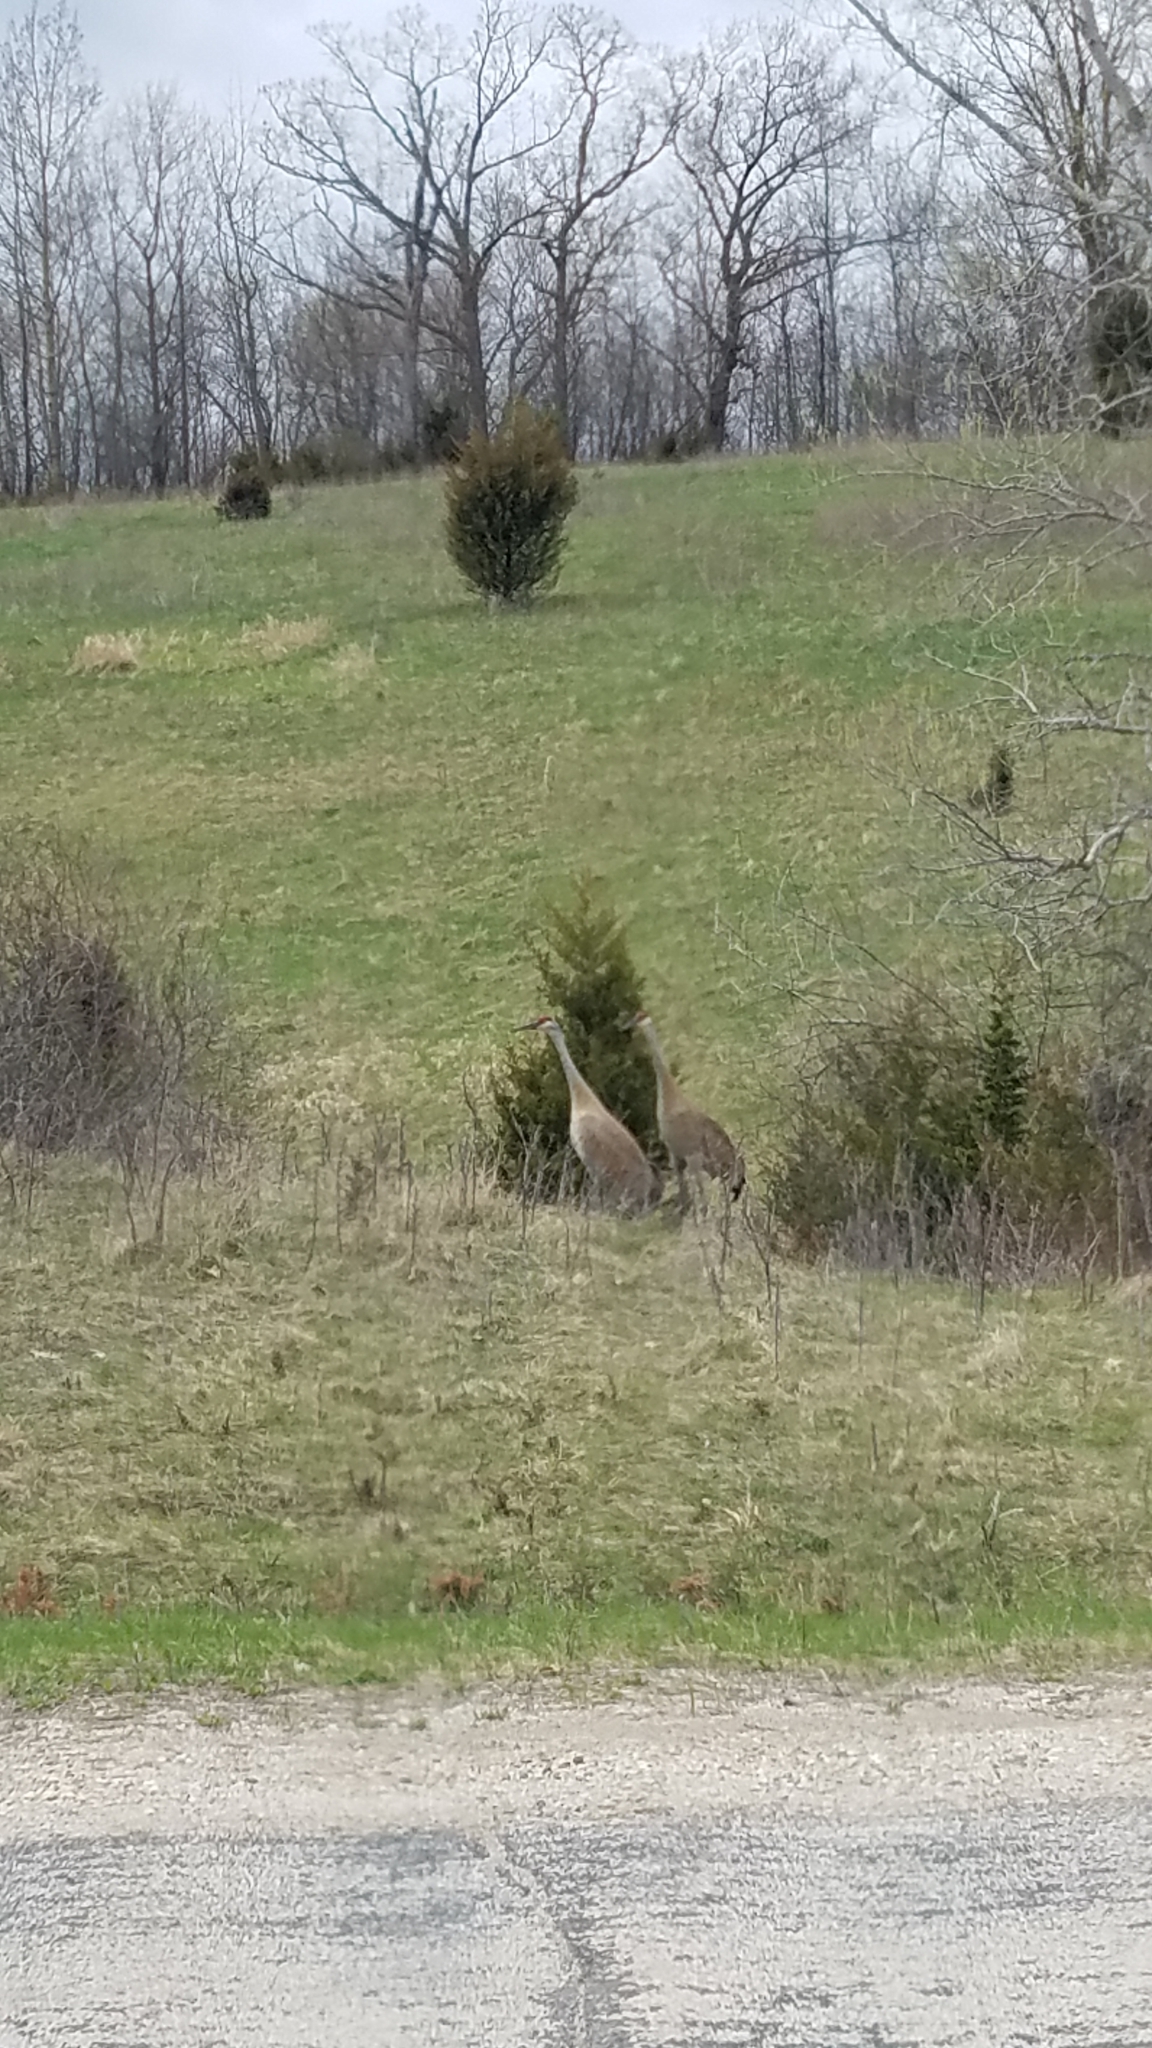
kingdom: Animalia
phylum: Chordata
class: Aves
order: Gruiformes
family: Gruidae
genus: Grus
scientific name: Grus canadensis
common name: Sandhill crane
